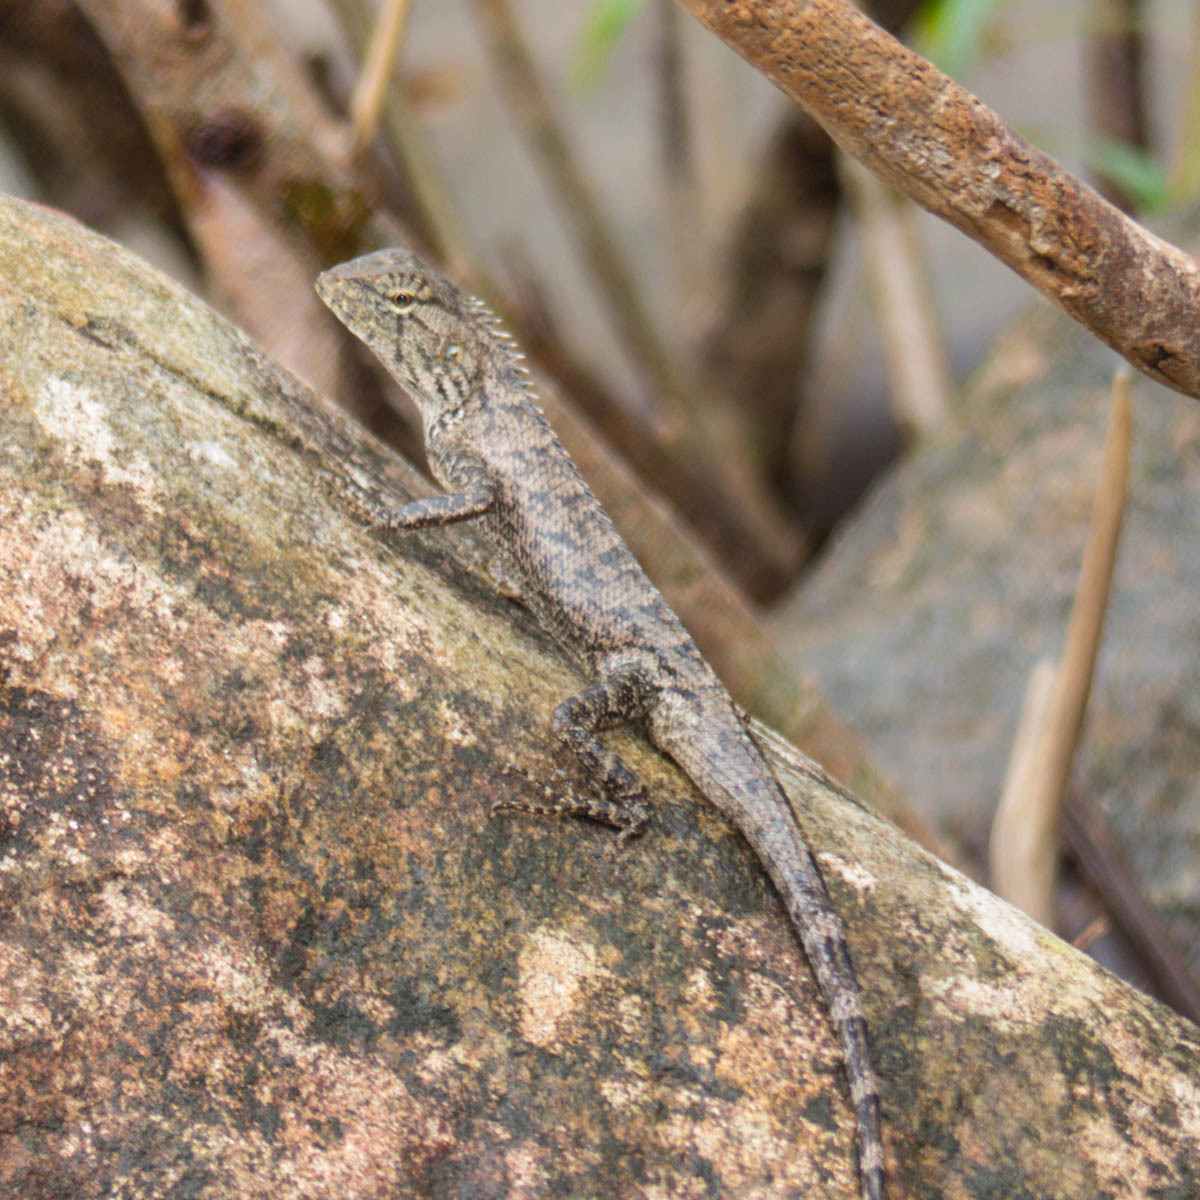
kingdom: Animalia
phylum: Chordata
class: Squamata
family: Agamidae
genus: Calotes
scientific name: Calotes versicolor
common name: Oriental garden lizard
